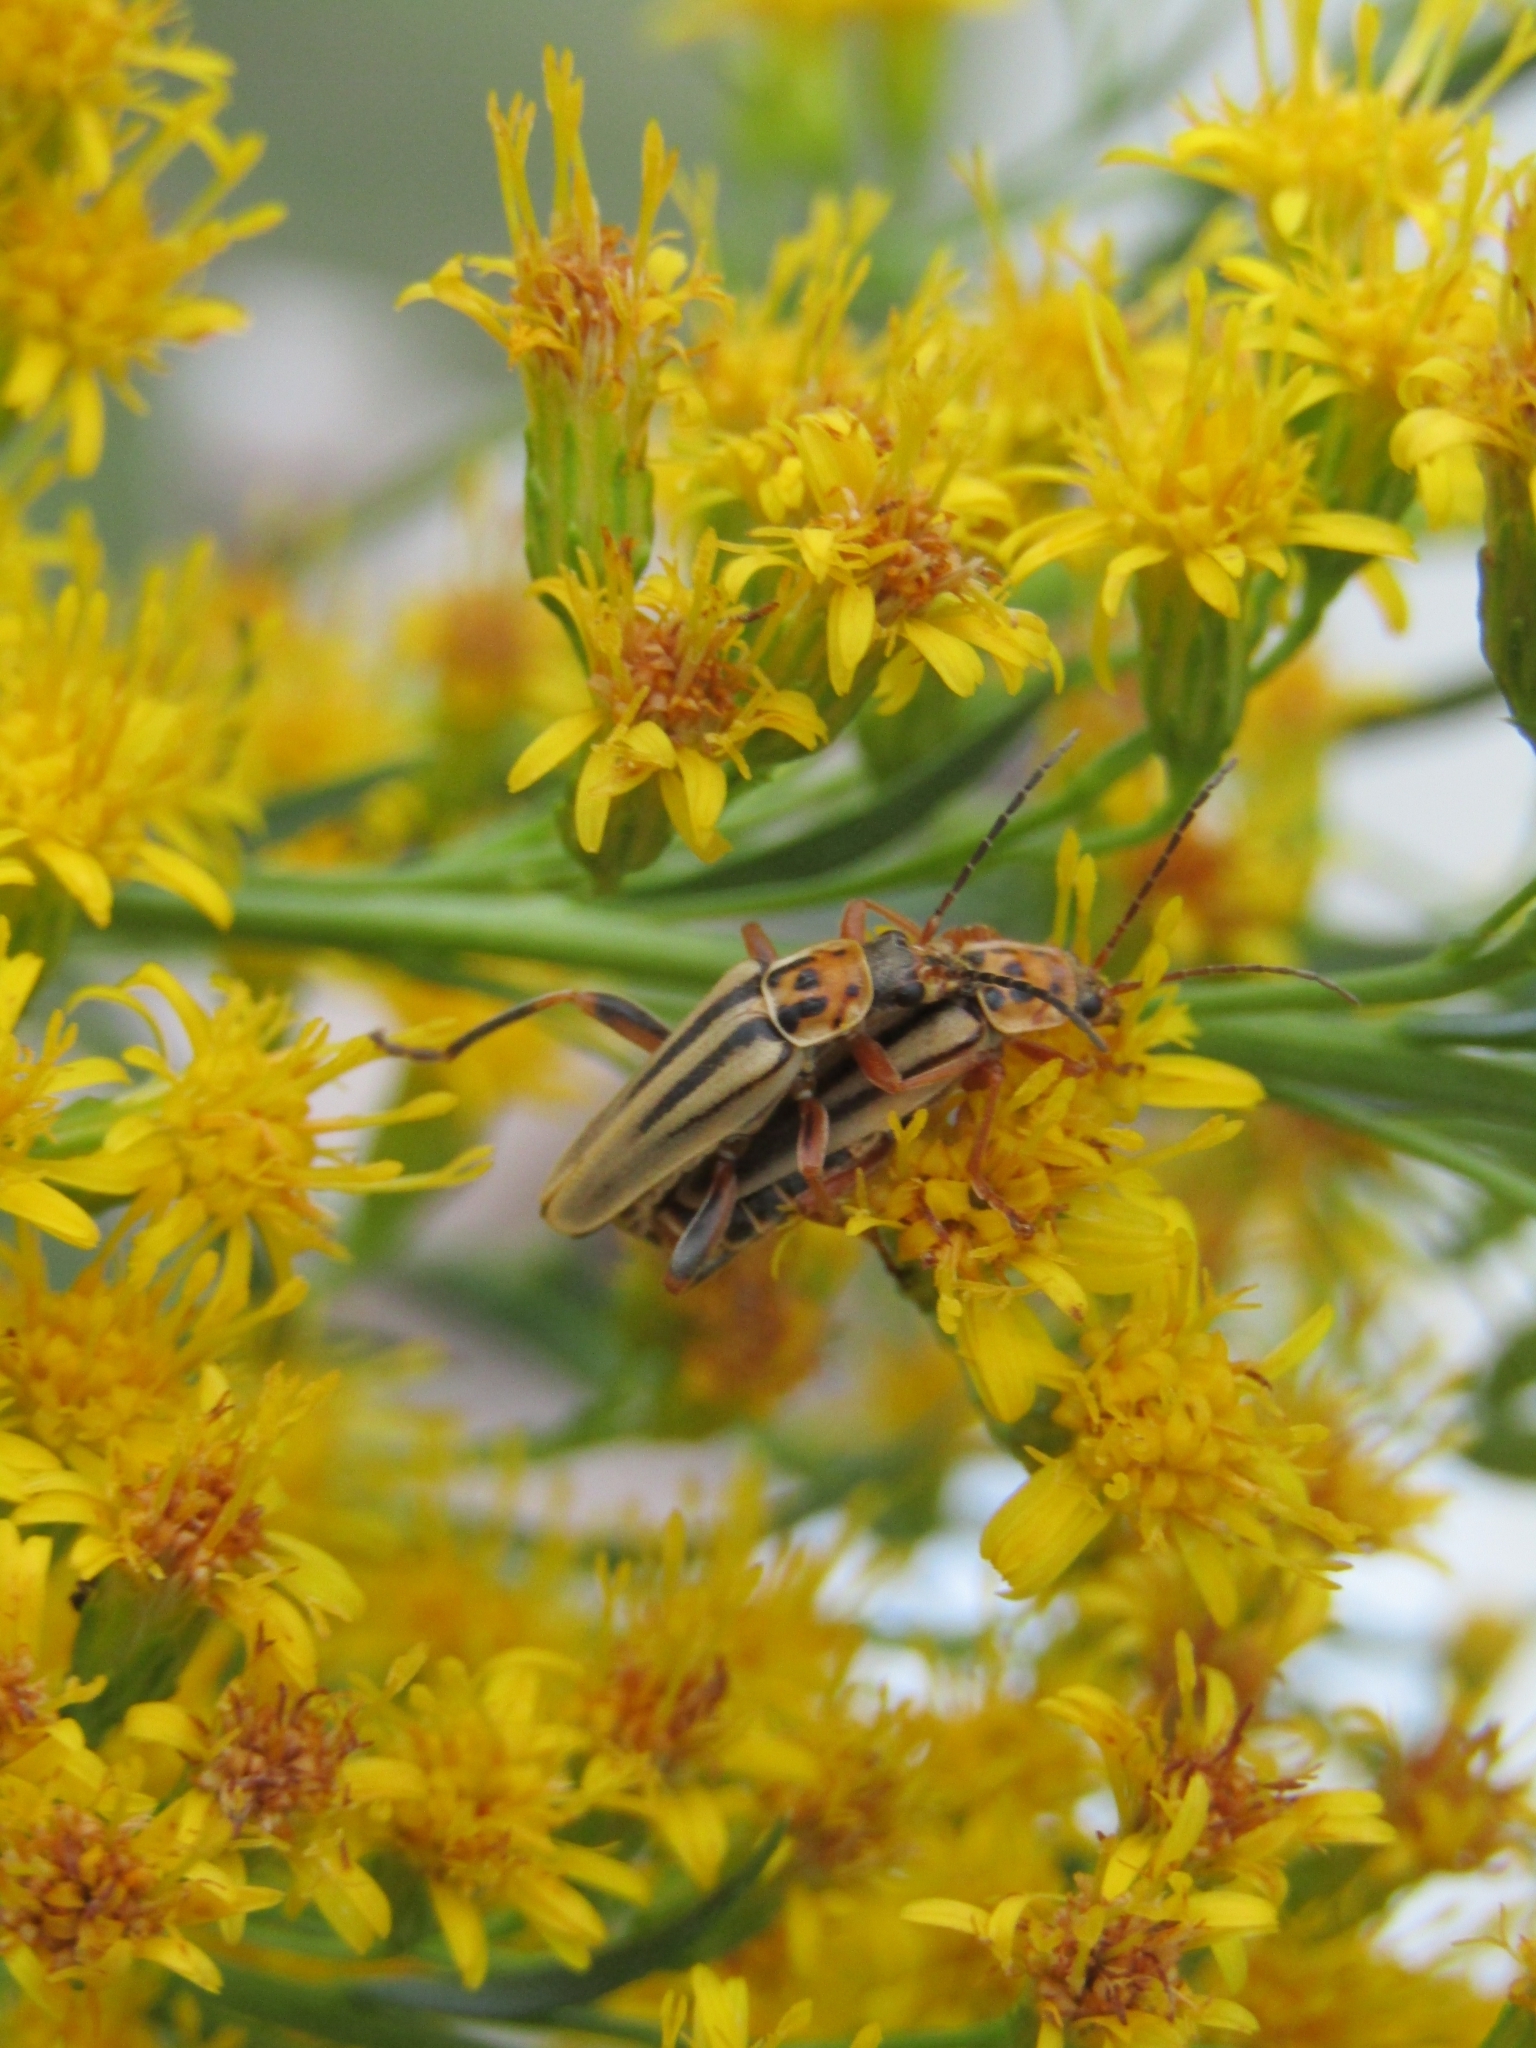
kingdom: Animalia
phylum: Arthropoda
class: Insecta
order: Coleoptera
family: Cantharidae
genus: Chauliognathus
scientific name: Chauliognathus
